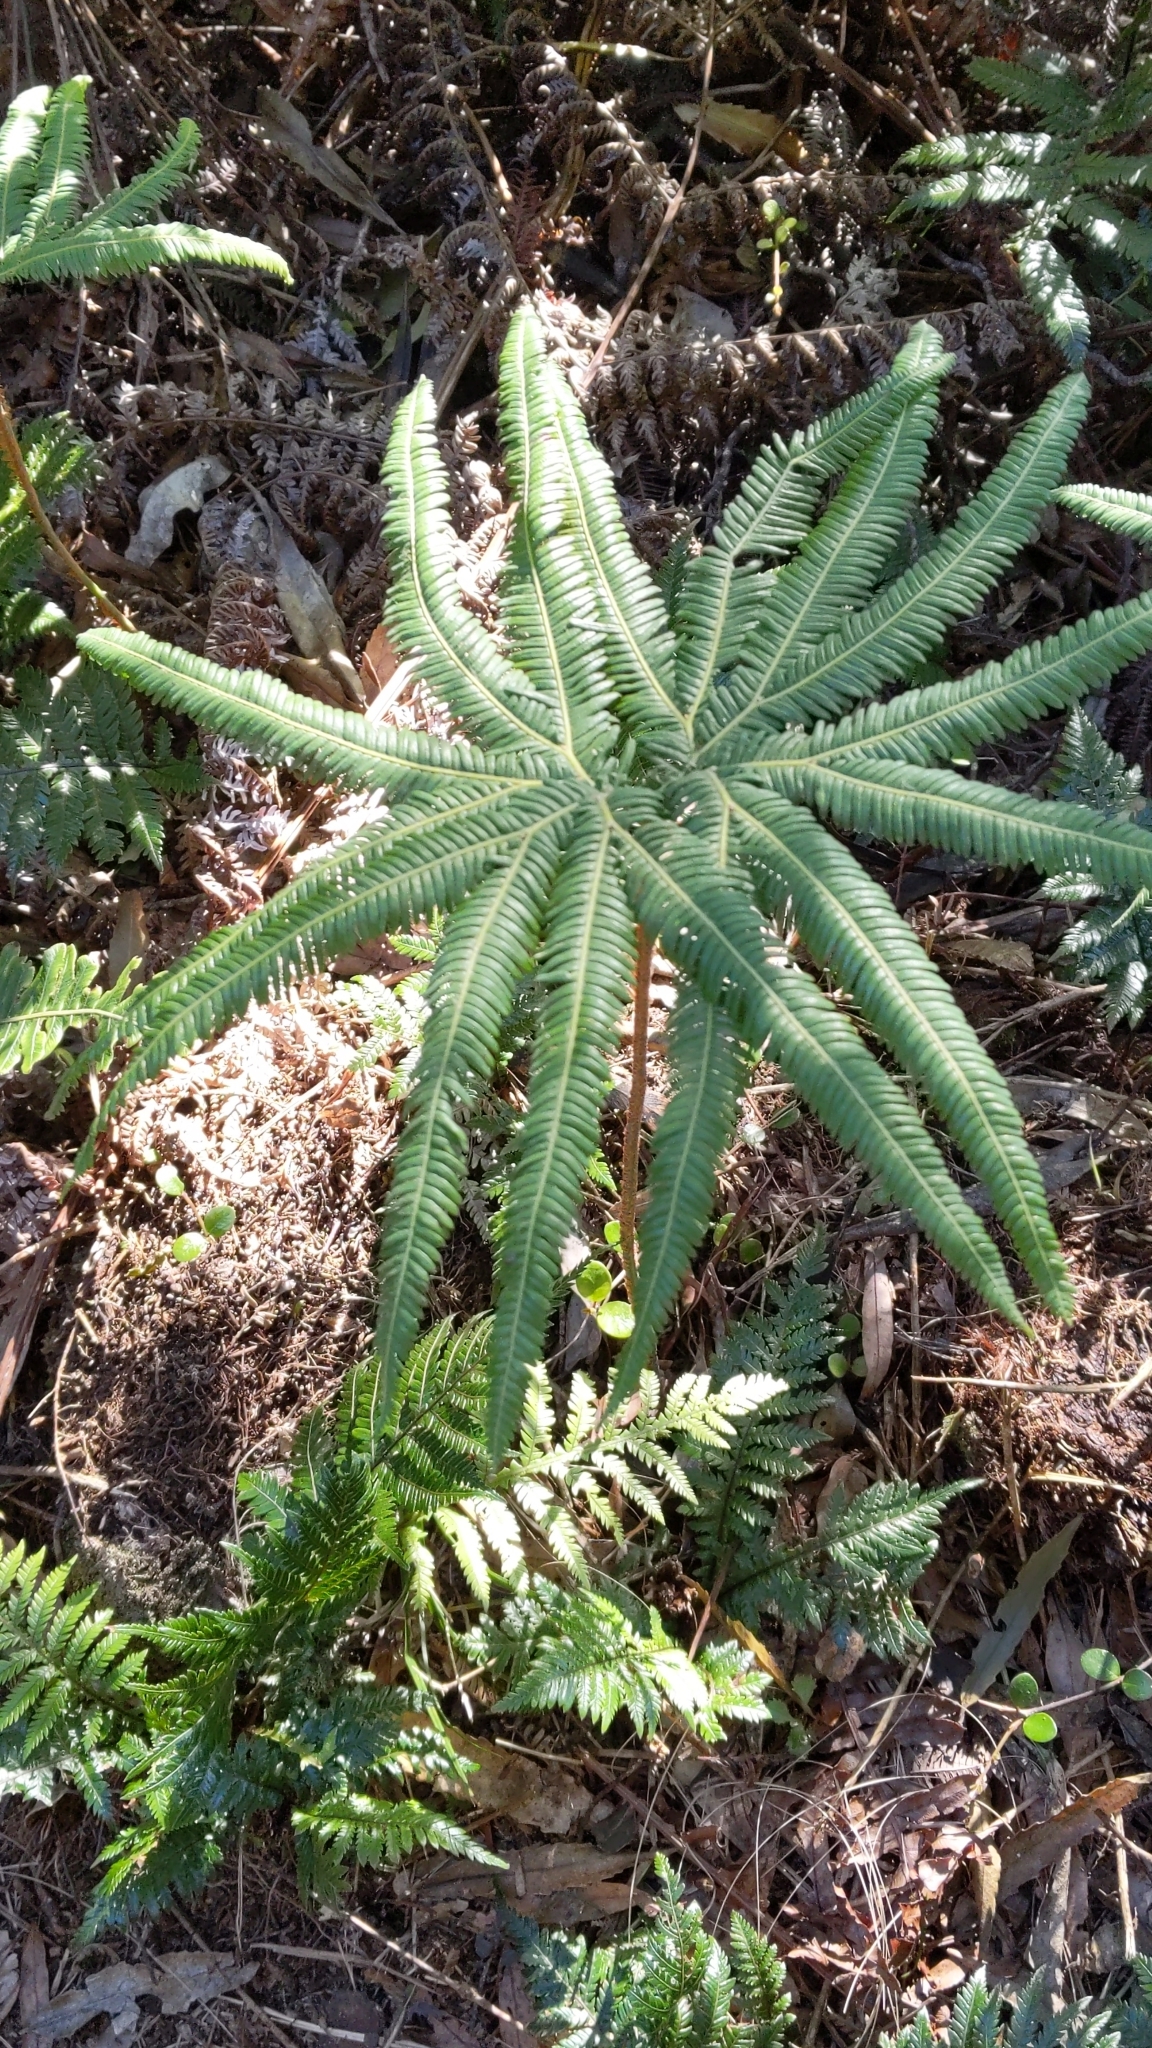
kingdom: Plantae
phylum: Tracheophyta
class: Polypodiopsida
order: Gleicheniales
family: Gleicheniaceae
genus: Sticherus
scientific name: Sticherus cunninghamii
